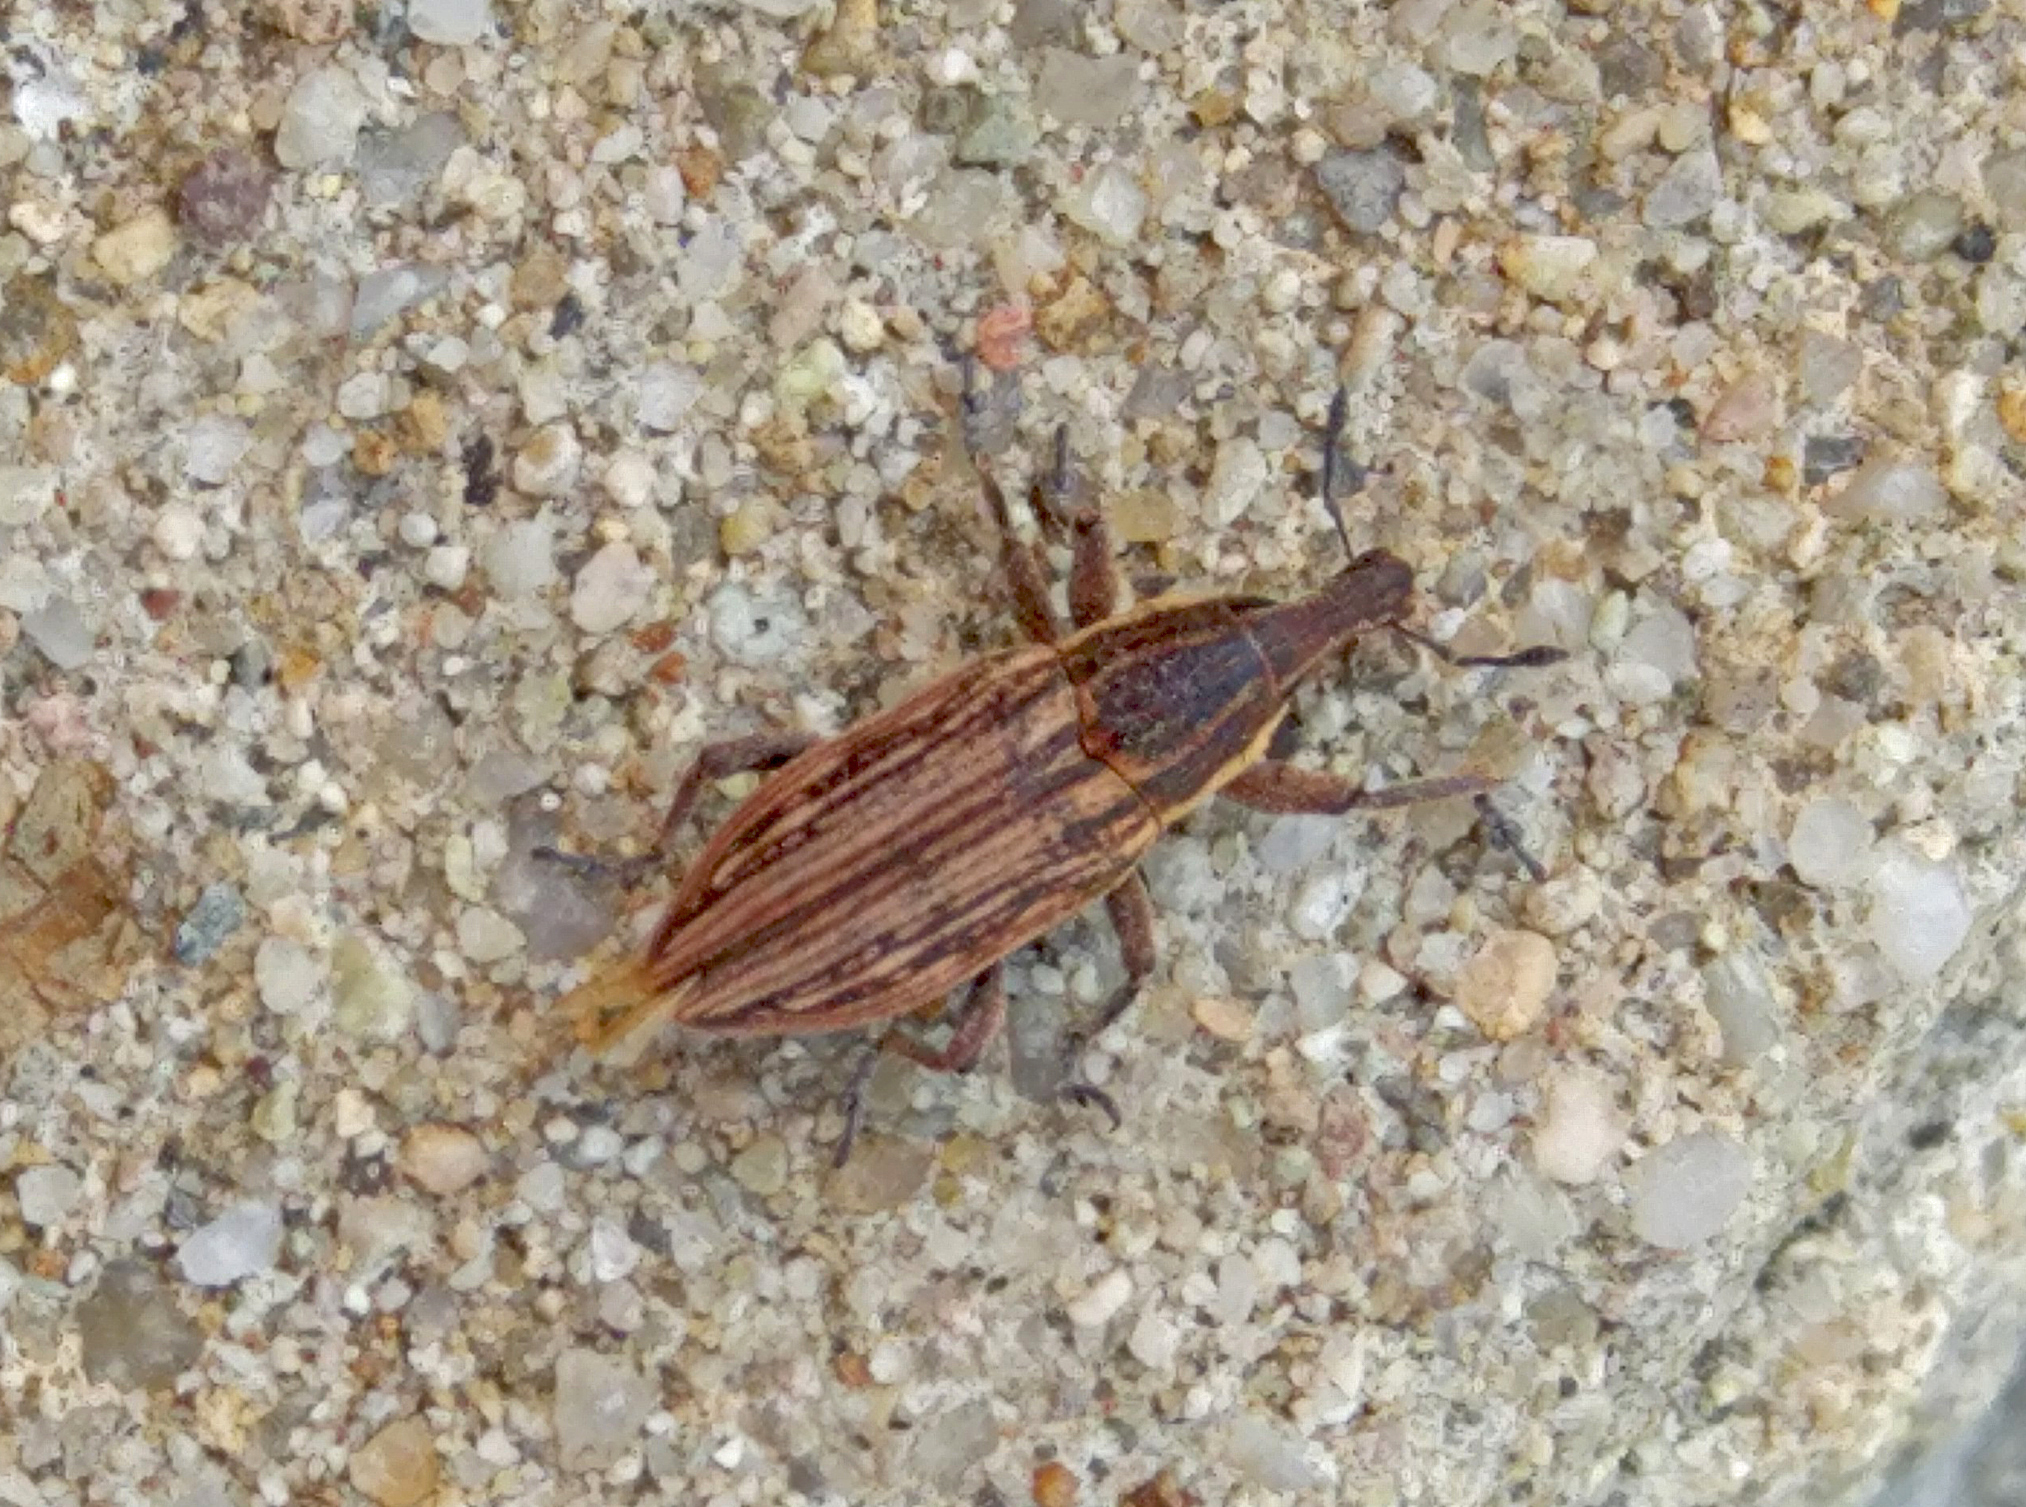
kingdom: Animalia
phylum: Arthropoda
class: Insecta
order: Coleoptera
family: Curculionidae
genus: Mecaspis
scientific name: Mecaspis alternans
